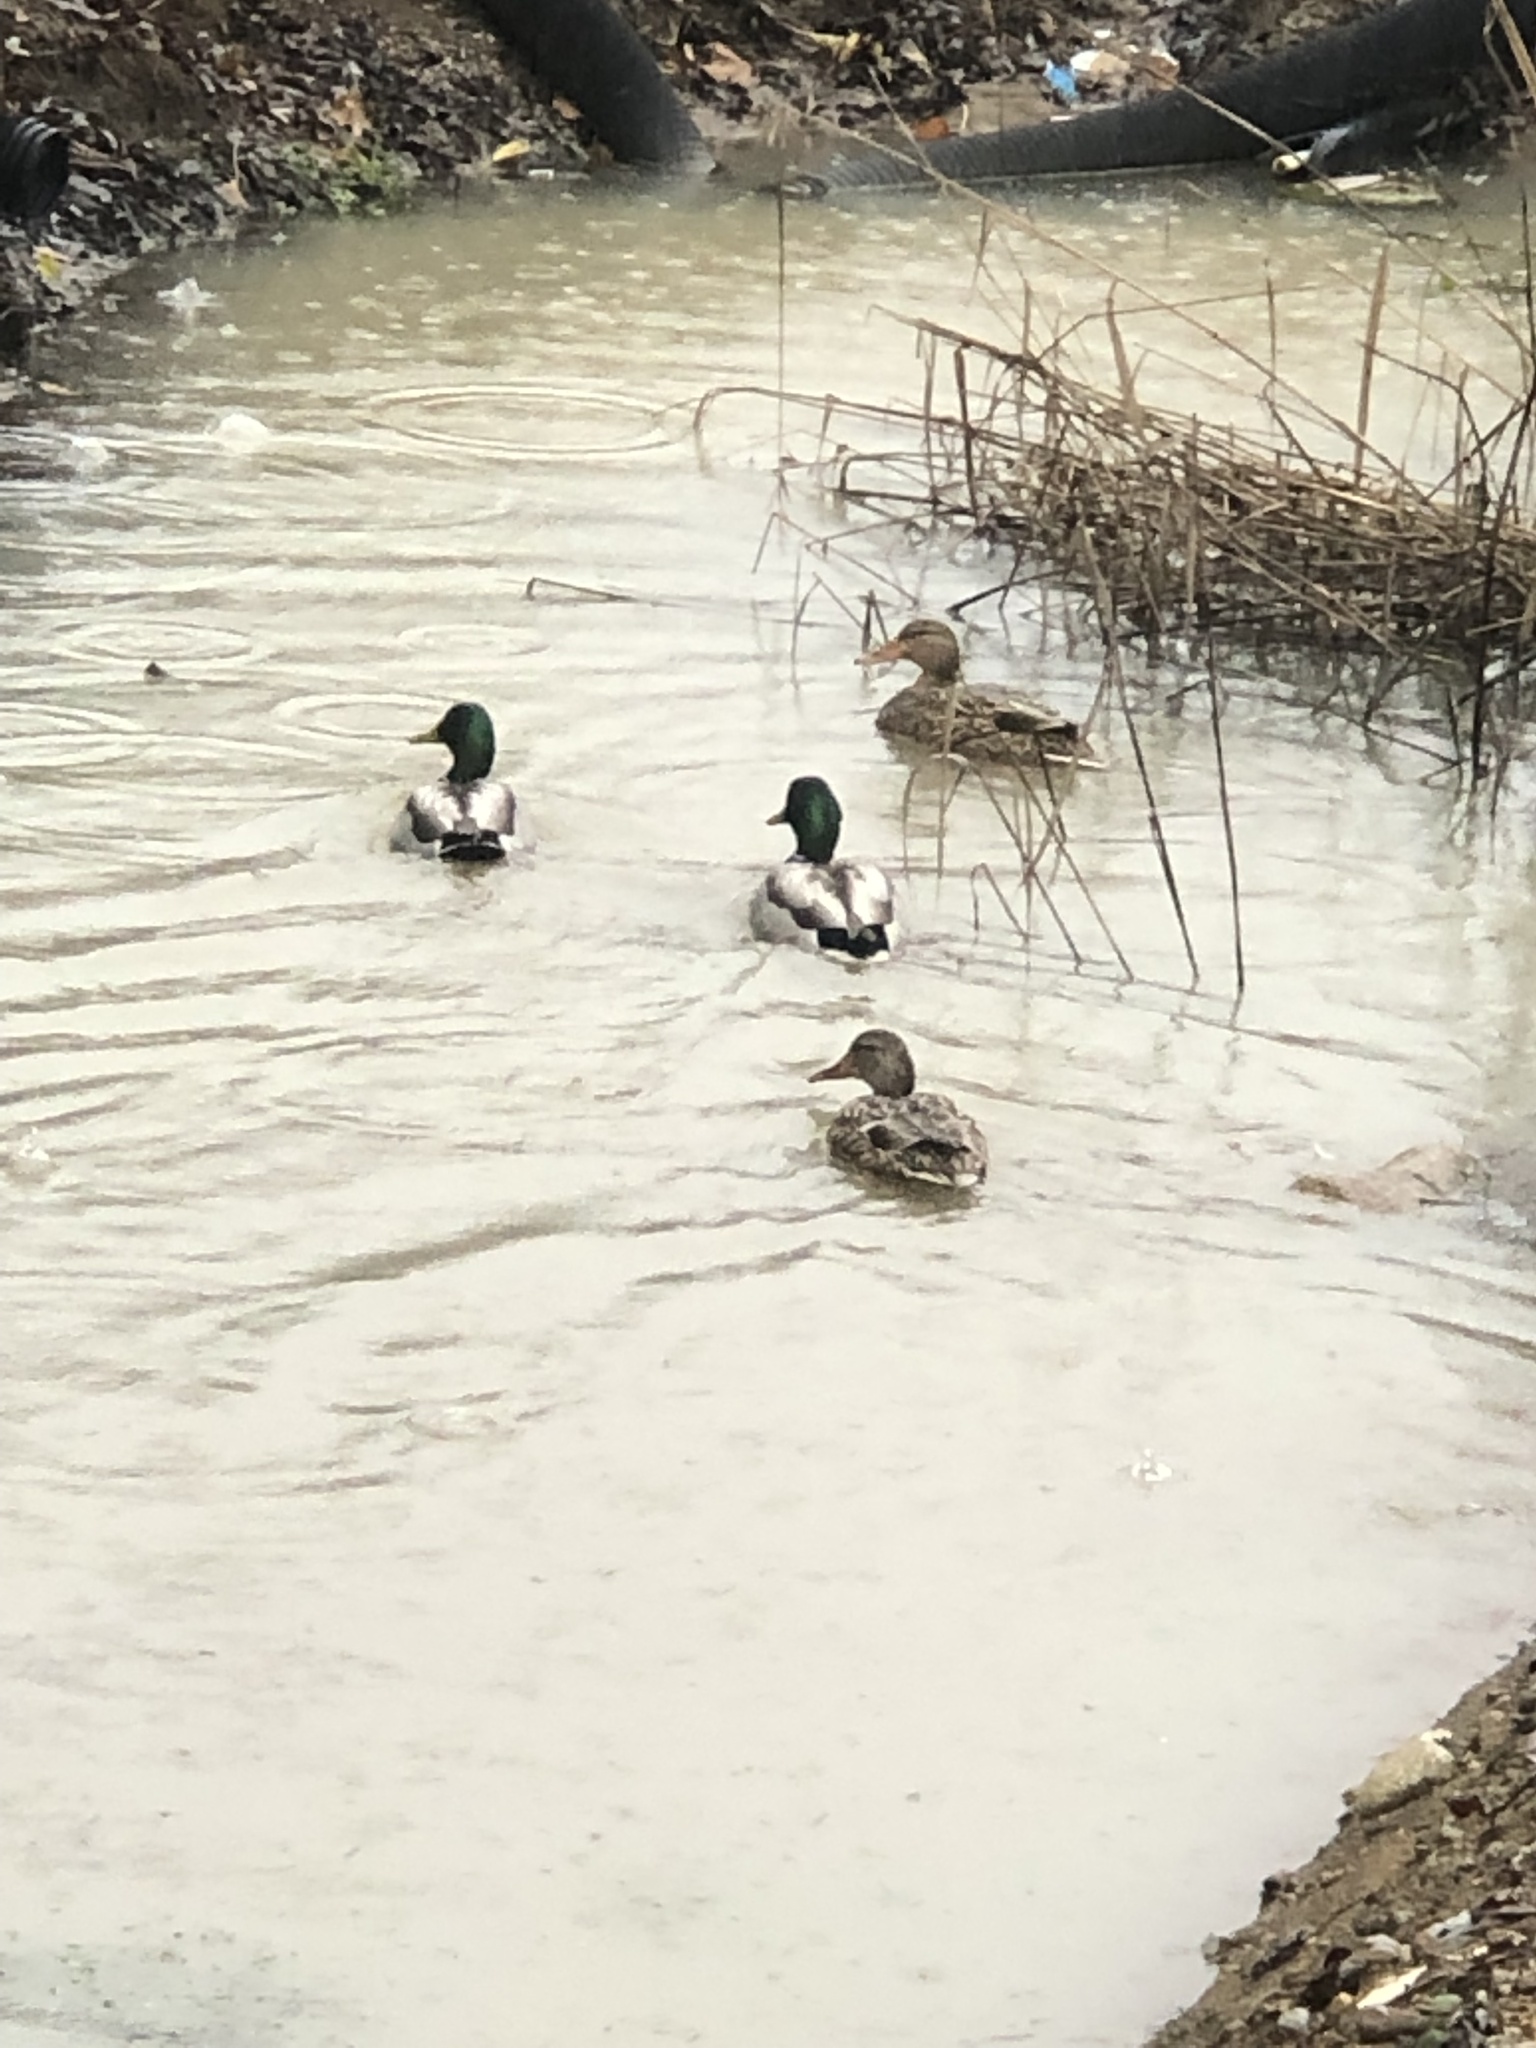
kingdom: Animalia
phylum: Chordata
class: Aves
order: Anseriformes
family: Anatidae
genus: Anas
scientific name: Anas platyrhynchos
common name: Mallard
